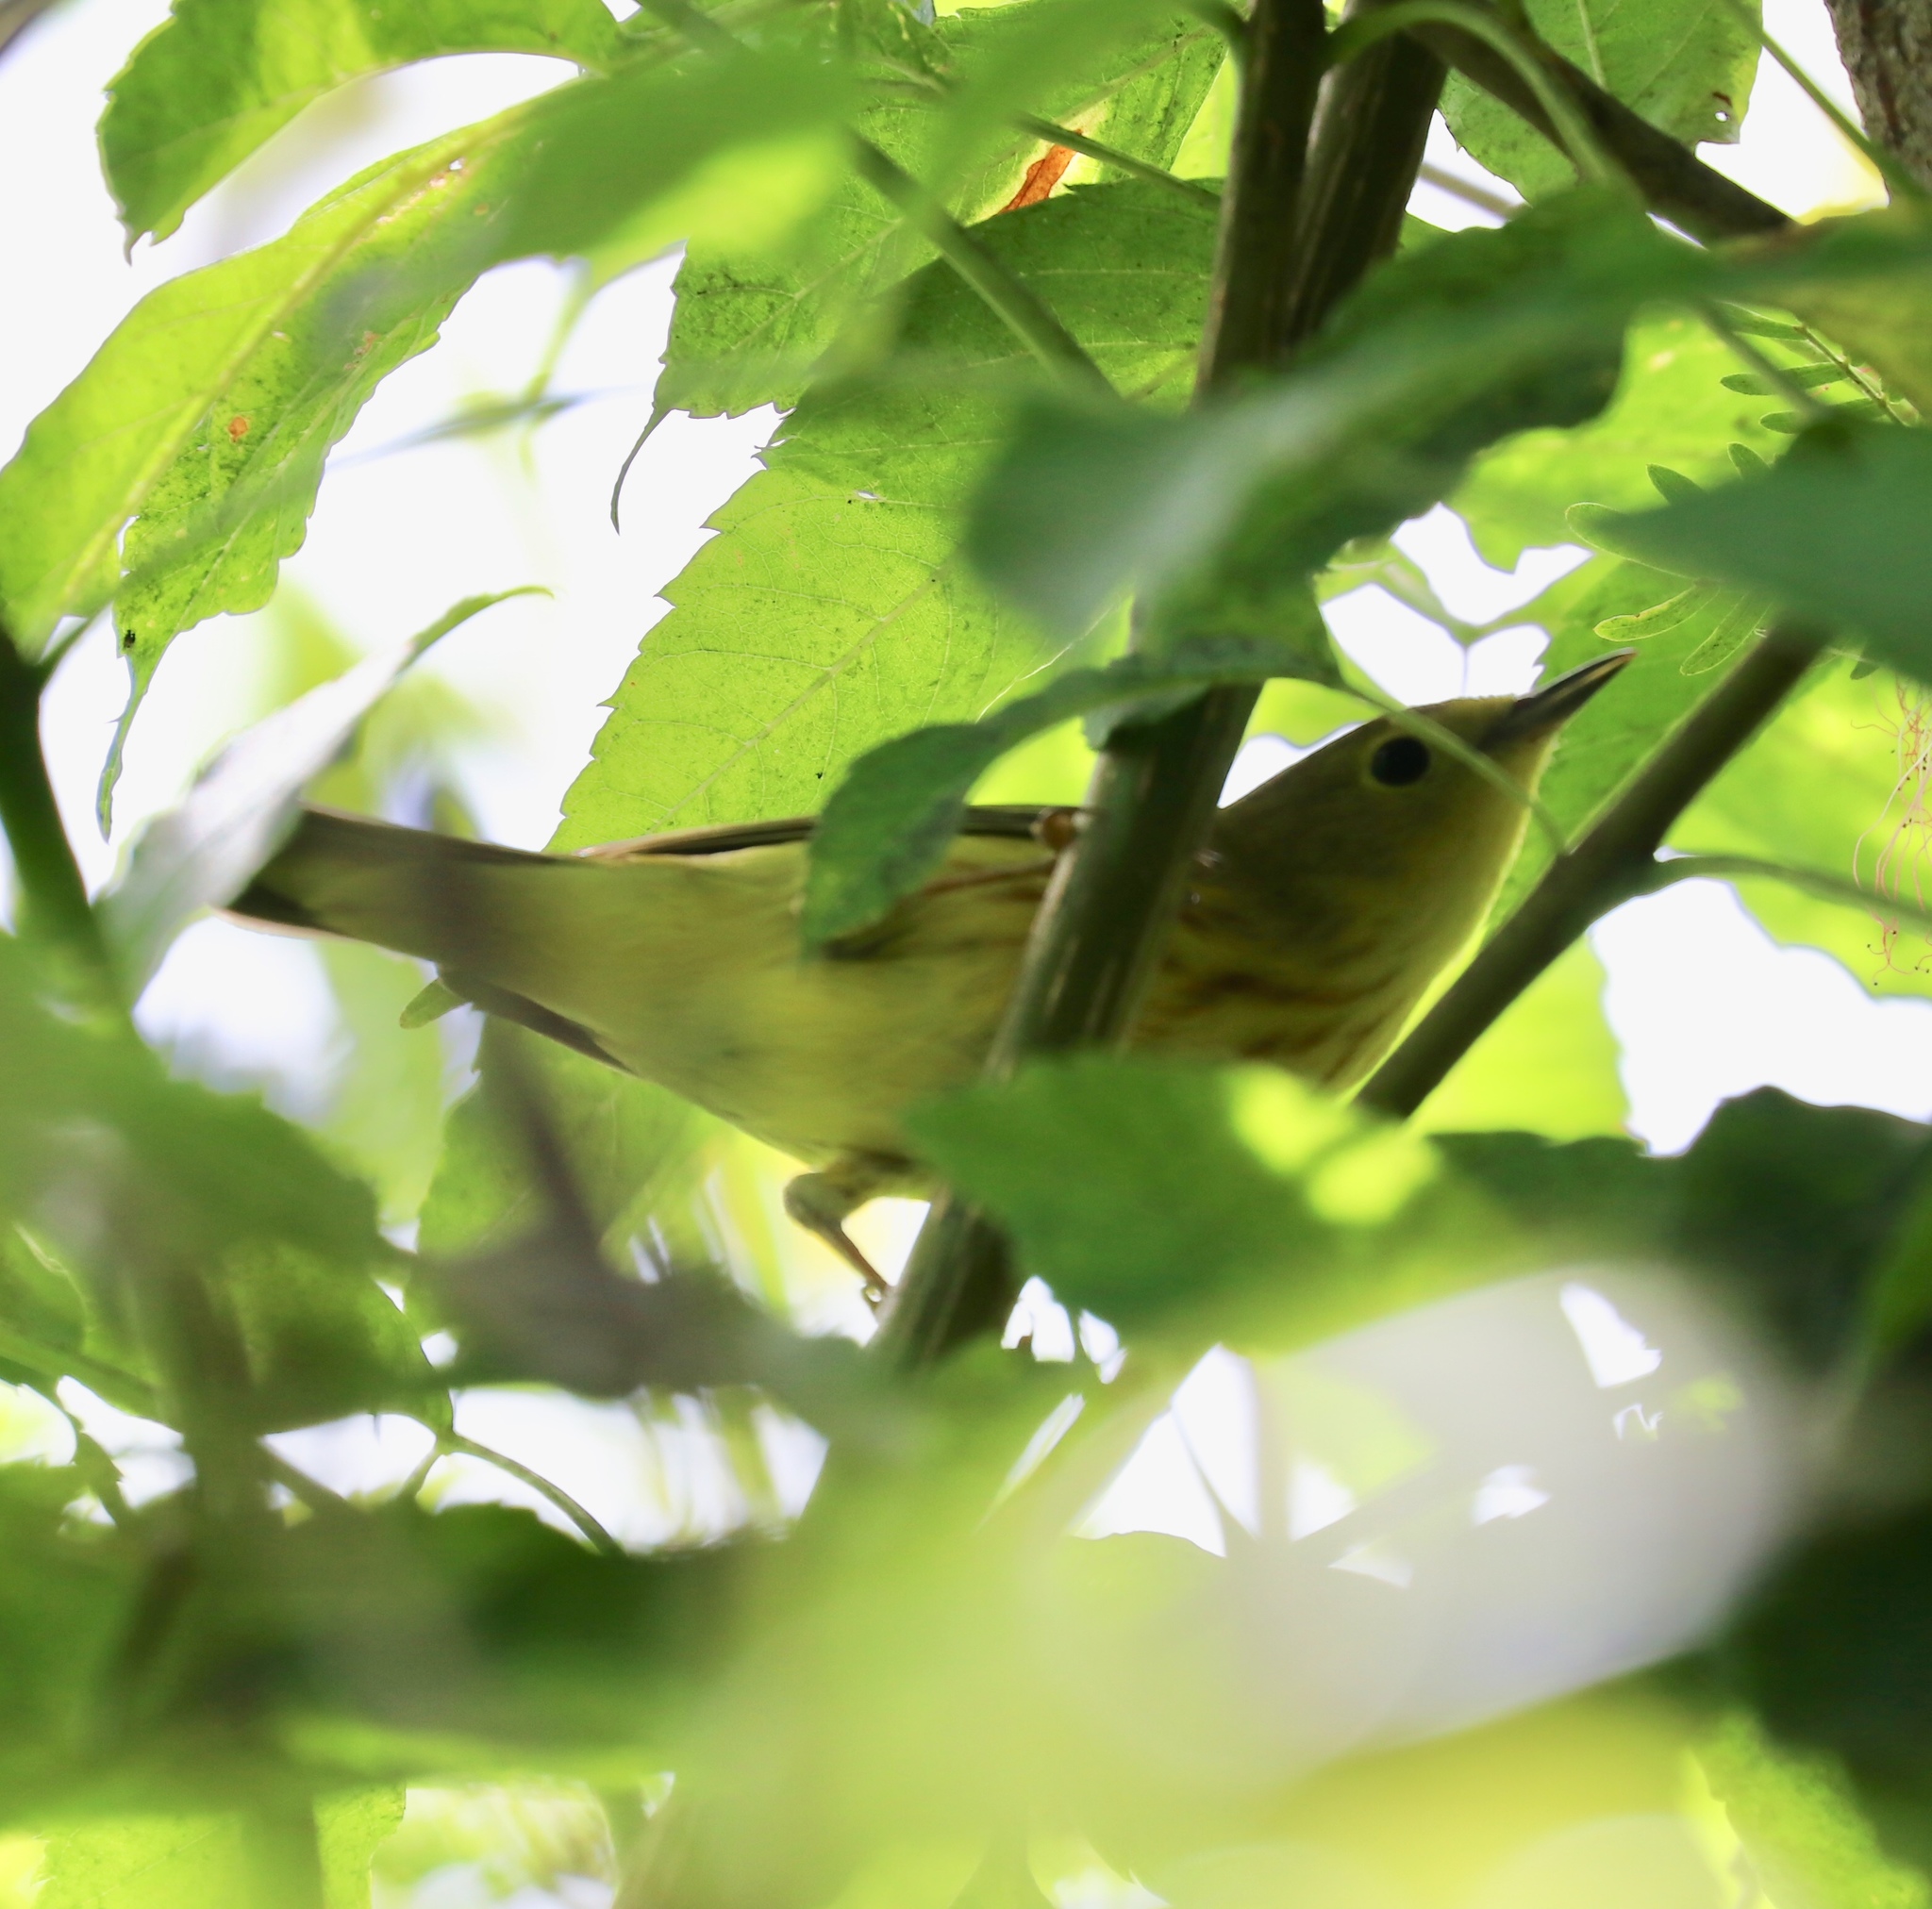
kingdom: Animalia
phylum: Chordata
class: Aves
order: Passeriformes
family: Parulidae
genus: Setophaga
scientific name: Setophaga petechia
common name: Yellow warbler
